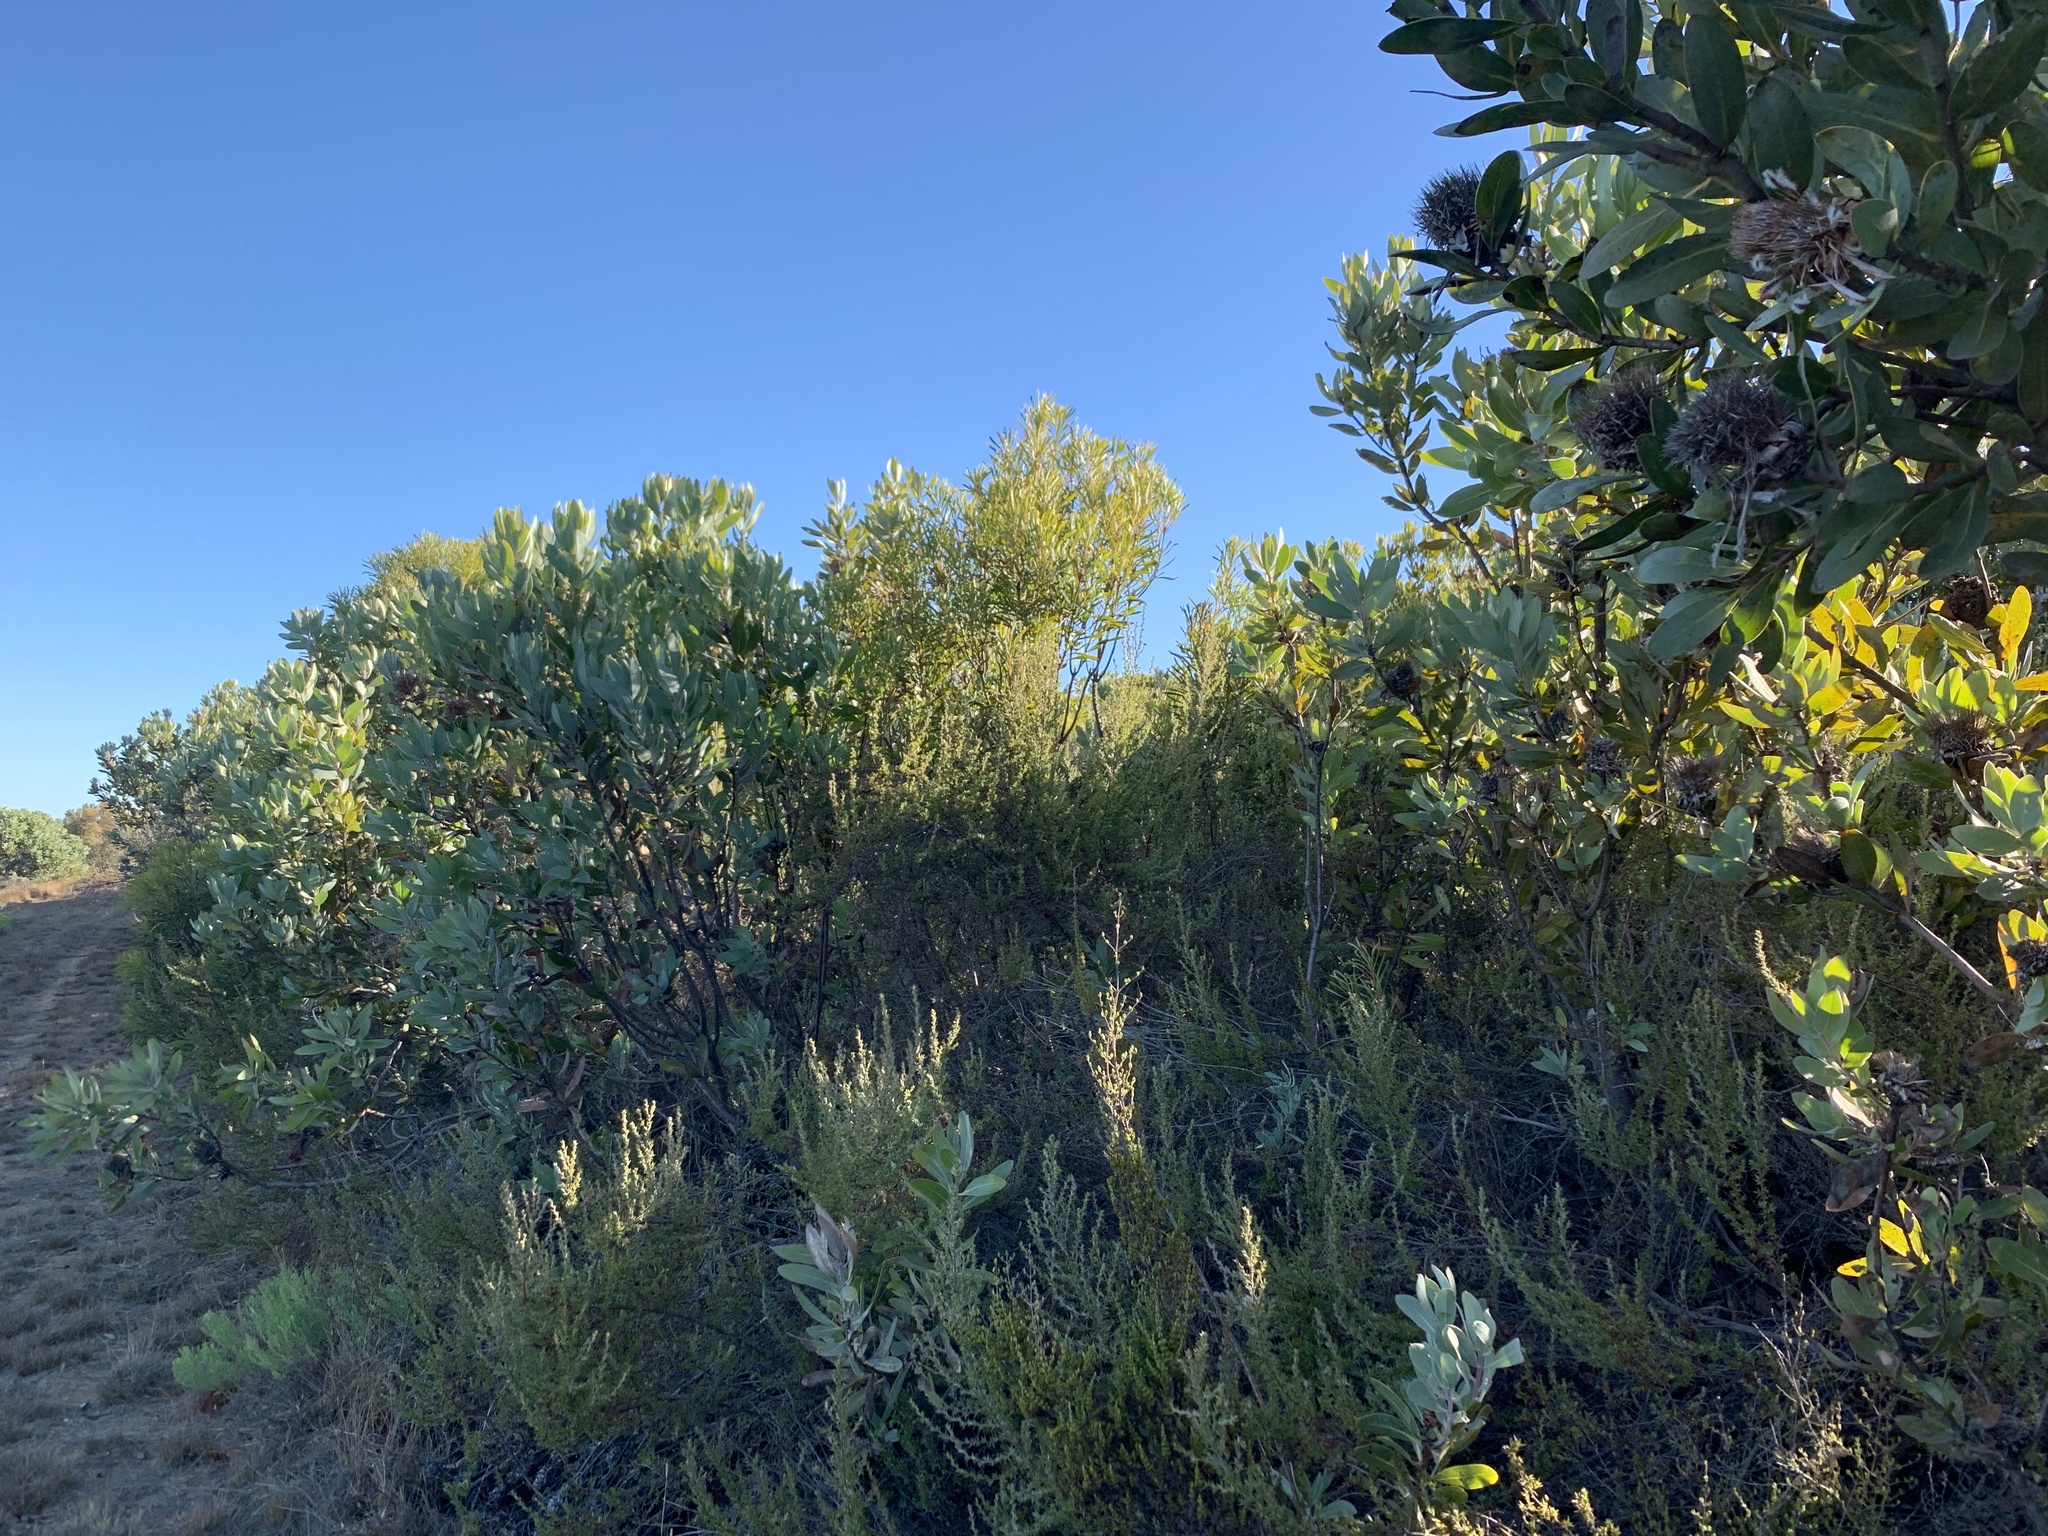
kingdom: Plantae
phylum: Tracheophyta
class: Magnoliopsida
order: Proteales
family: Proteaceae
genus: Protea
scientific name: Protea laurifolia
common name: Grey-leaf sugarbsh
